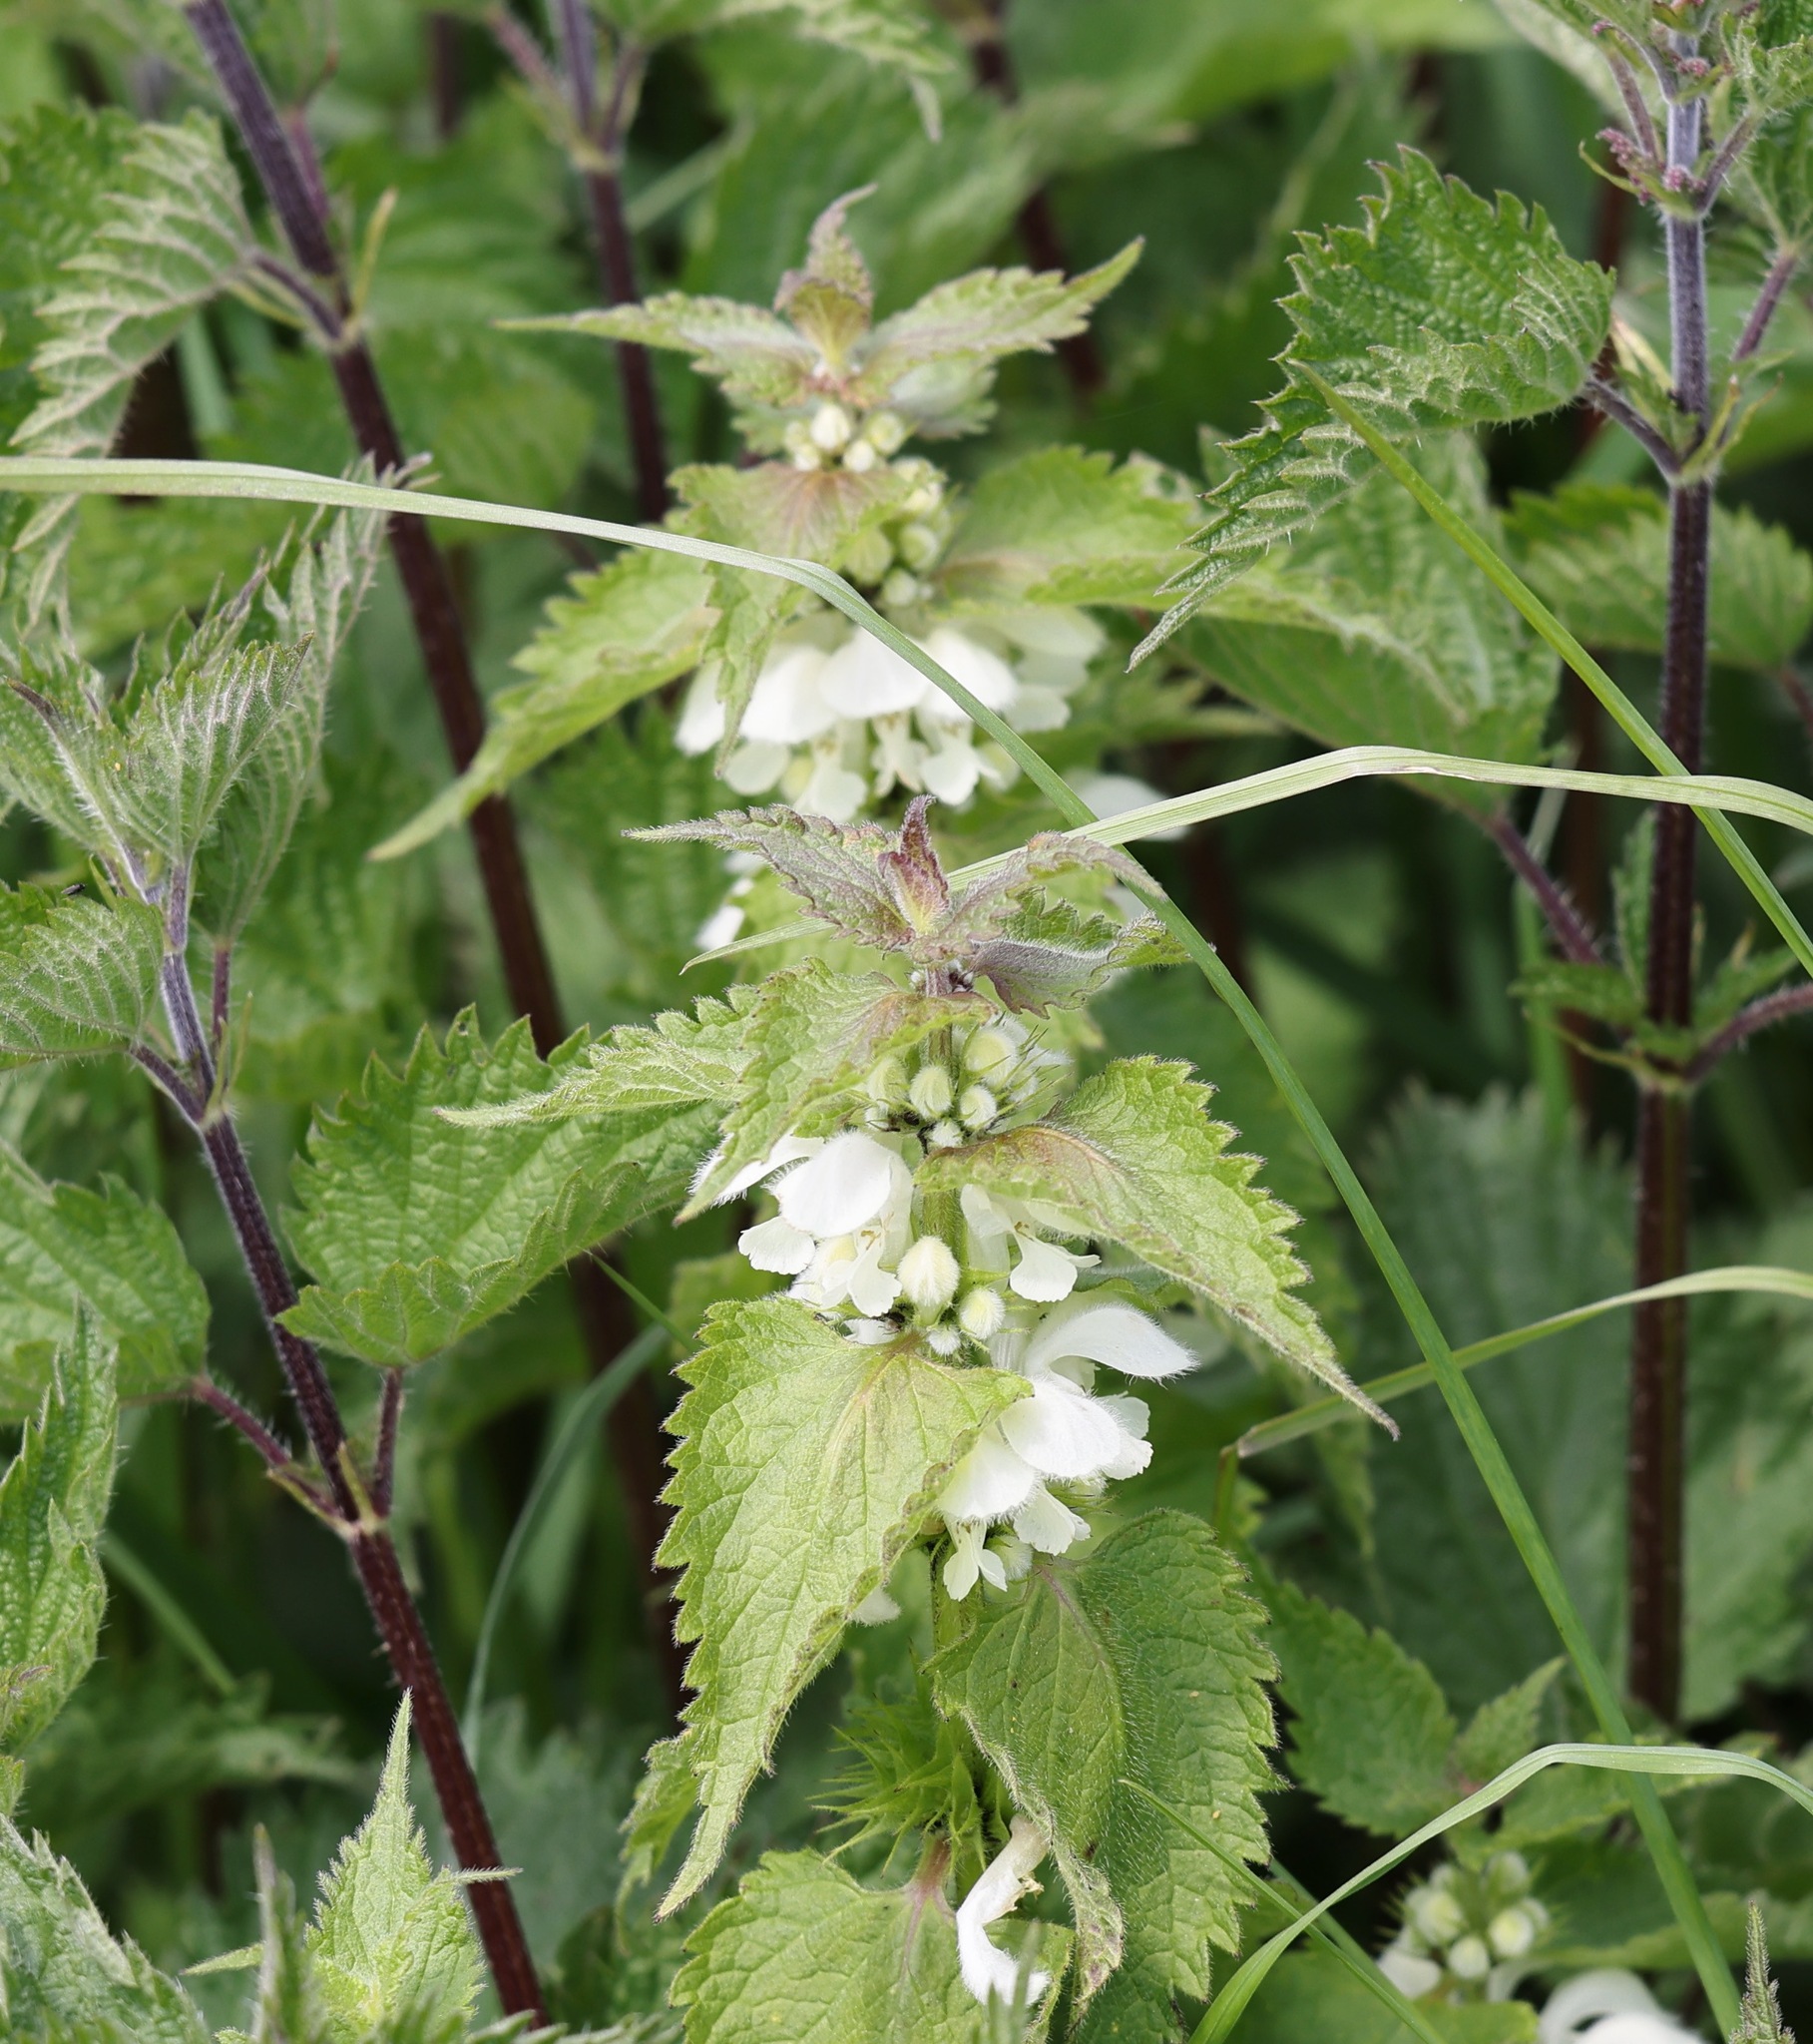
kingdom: Plantae
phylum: Tracheophyta
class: Magnoliopsida
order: Lamiales
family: Lamiaceae
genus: Lamium
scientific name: Lamium album
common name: White dead-nettle
